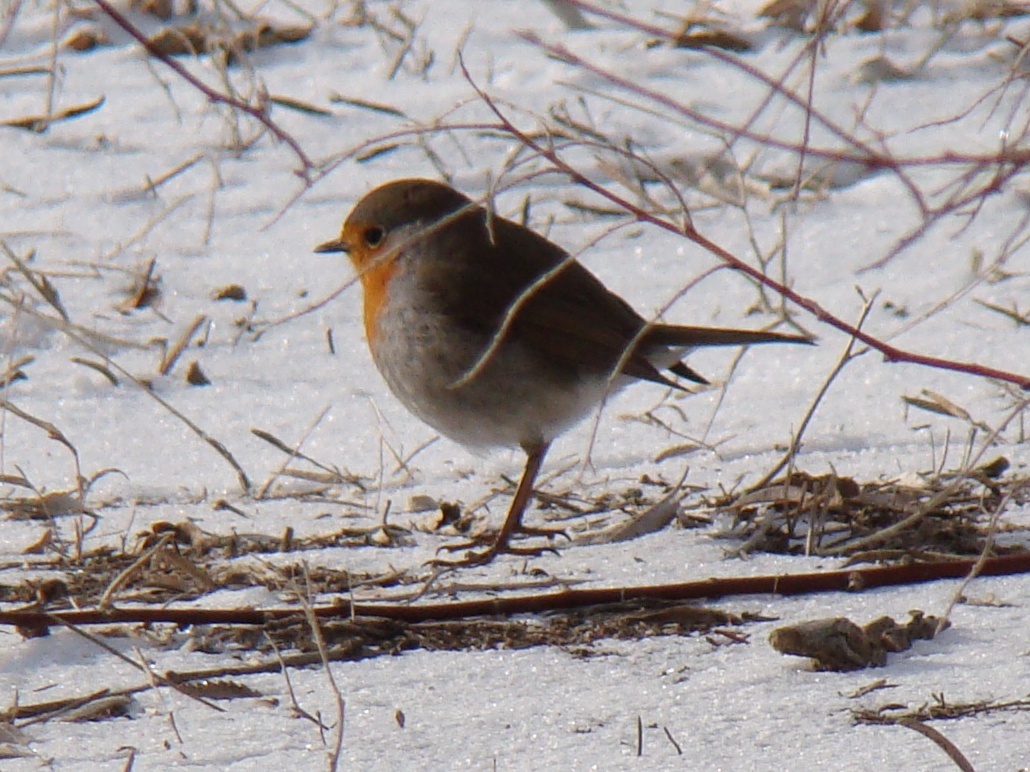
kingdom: Animalia
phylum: Chordata
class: Aves
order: Passeriformes
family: Muscicapidae
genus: Erithacus
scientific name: Erithacus rubecula
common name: European robin
